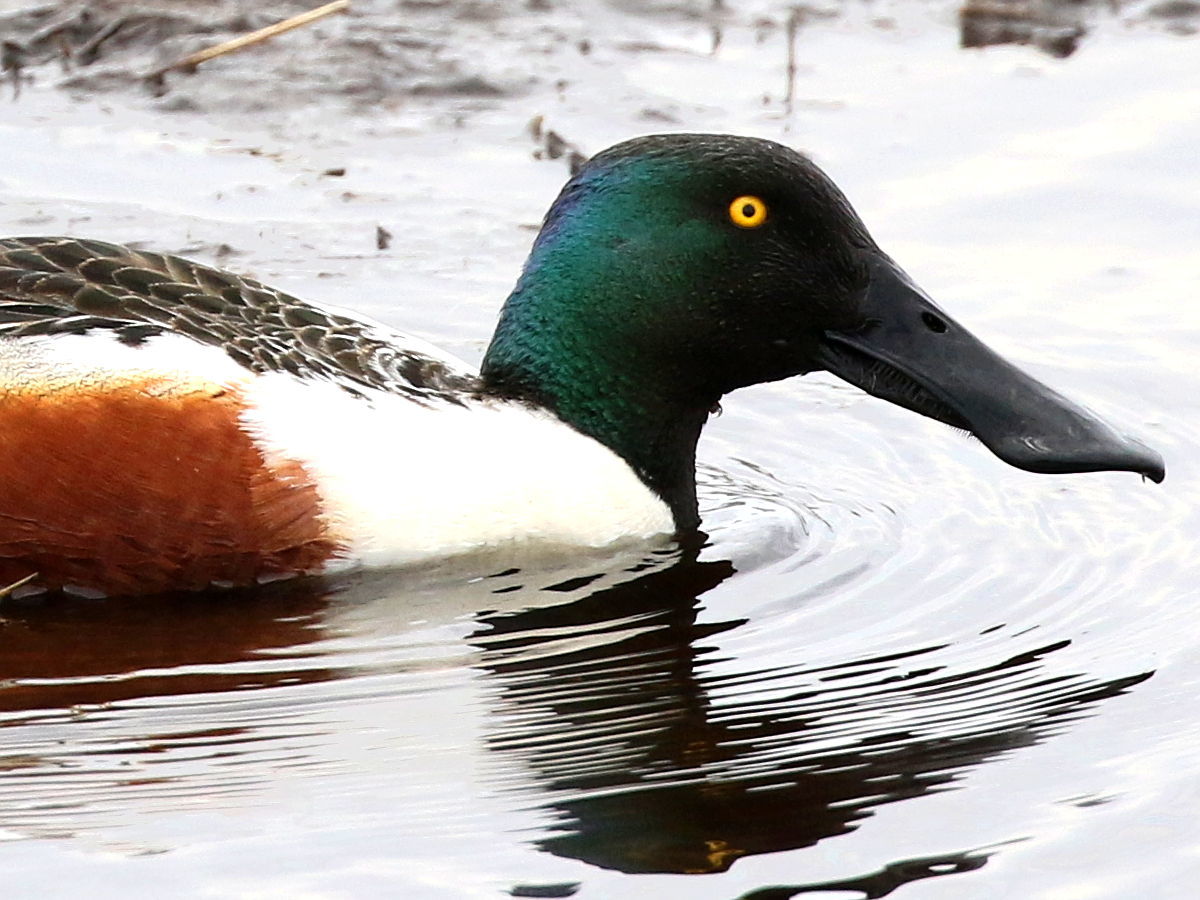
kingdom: Animalia
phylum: Chordata
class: Aves
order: Anseriformes
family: Anatidae
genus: Spatula
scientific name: Spatula clypeata
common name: Northern shoveler
